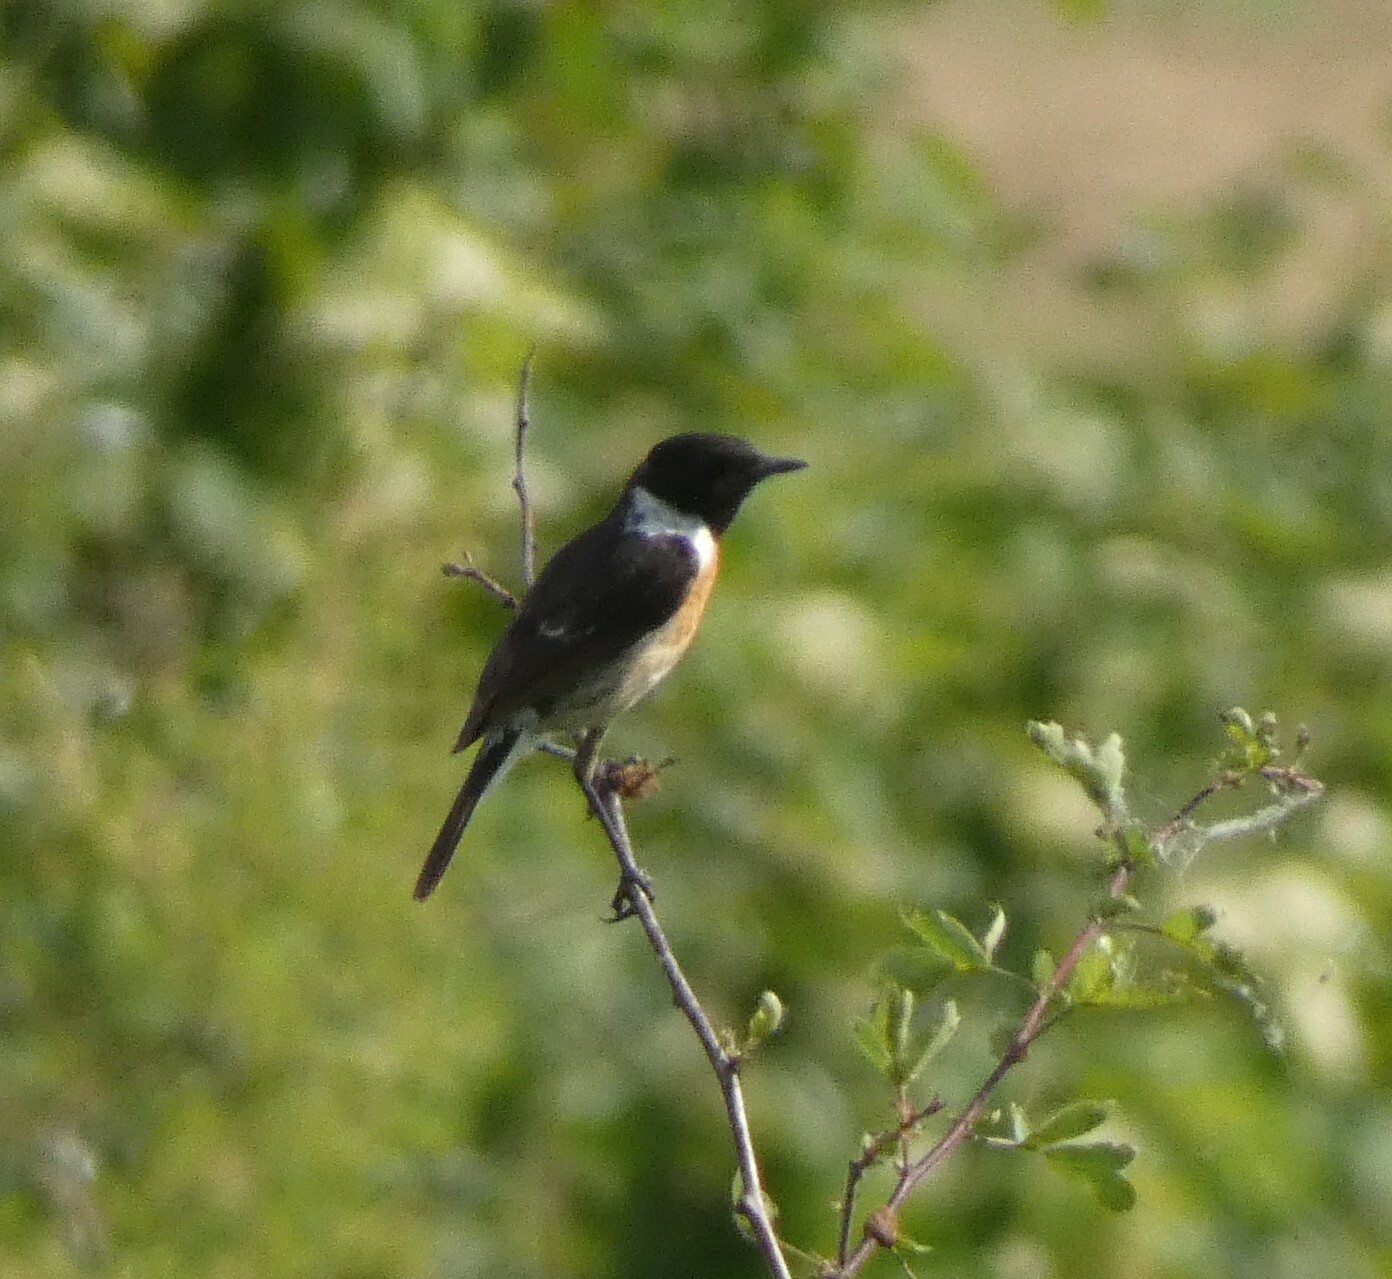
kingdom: Animalia
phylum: Chordata
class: Aves
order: Passeriformes
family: Muscicapidae
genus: Saxicola
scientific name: Saxicola rubicola
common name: European stonechat
